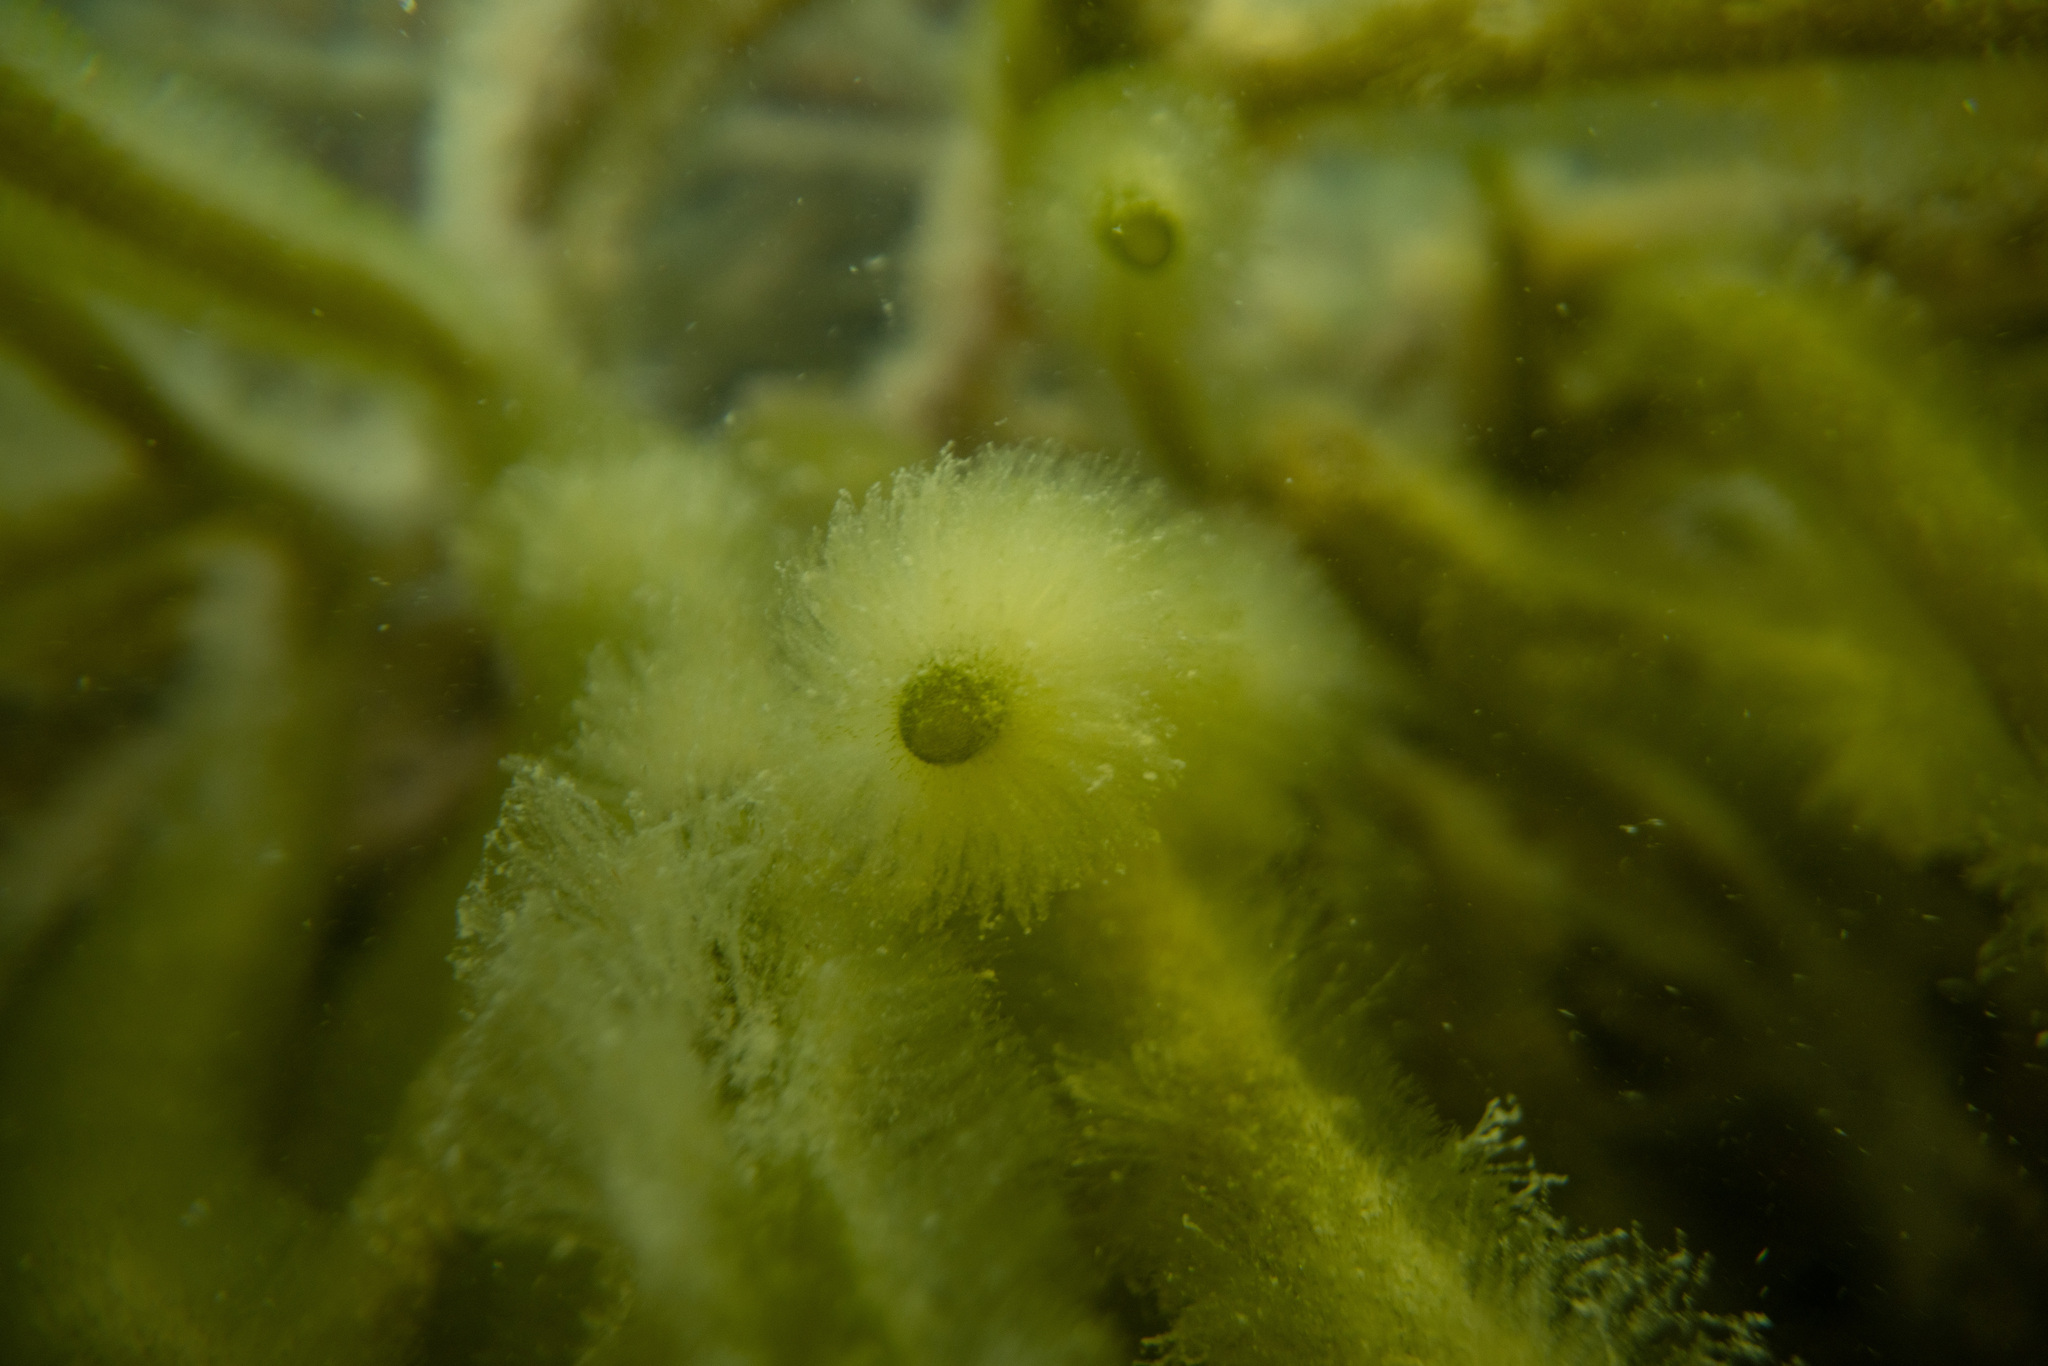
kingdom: Plantae
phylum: Chlorophyta
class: Ulvophyceae
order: Bryopsidales
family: Codiaceae
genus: Codium
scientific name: Codium fragile
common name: Dead man's fingers
